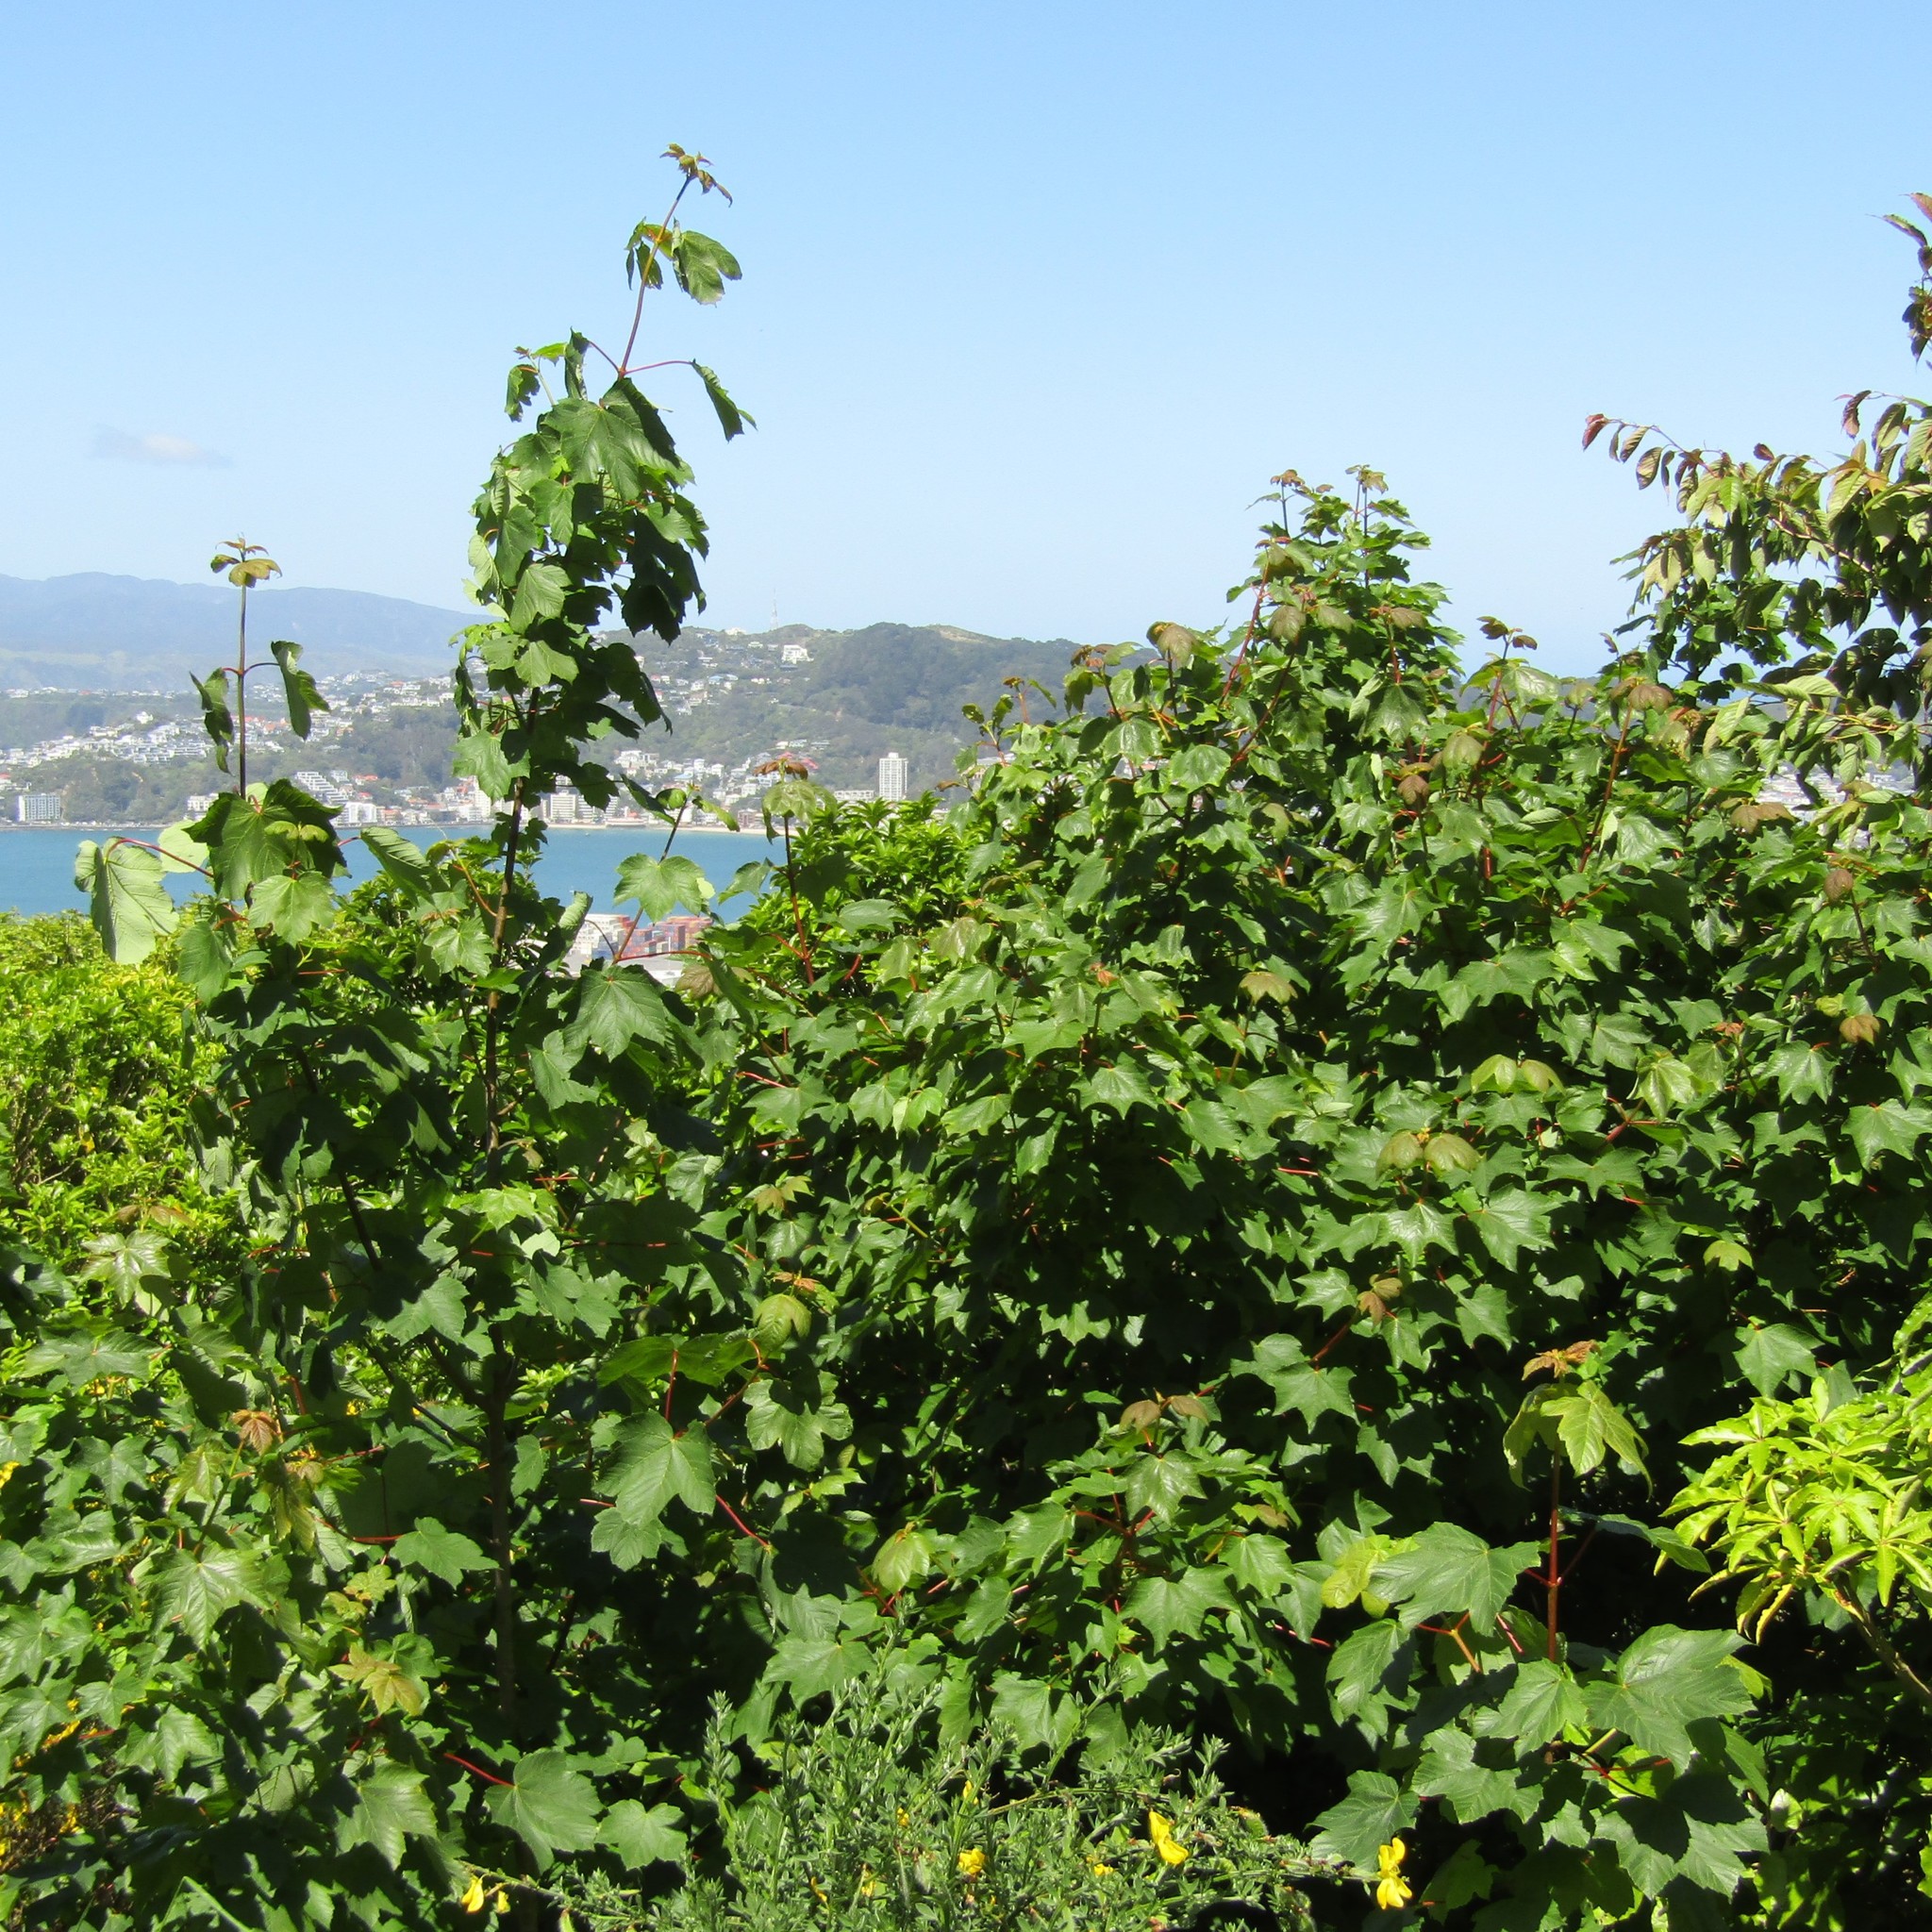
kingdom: Plantae
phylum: Tracheophyta
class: Magnoliopsida
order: Sapindales
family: Sapindaceae
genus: Acer
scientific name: Acer pseudoplatanus
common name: Sycamore
